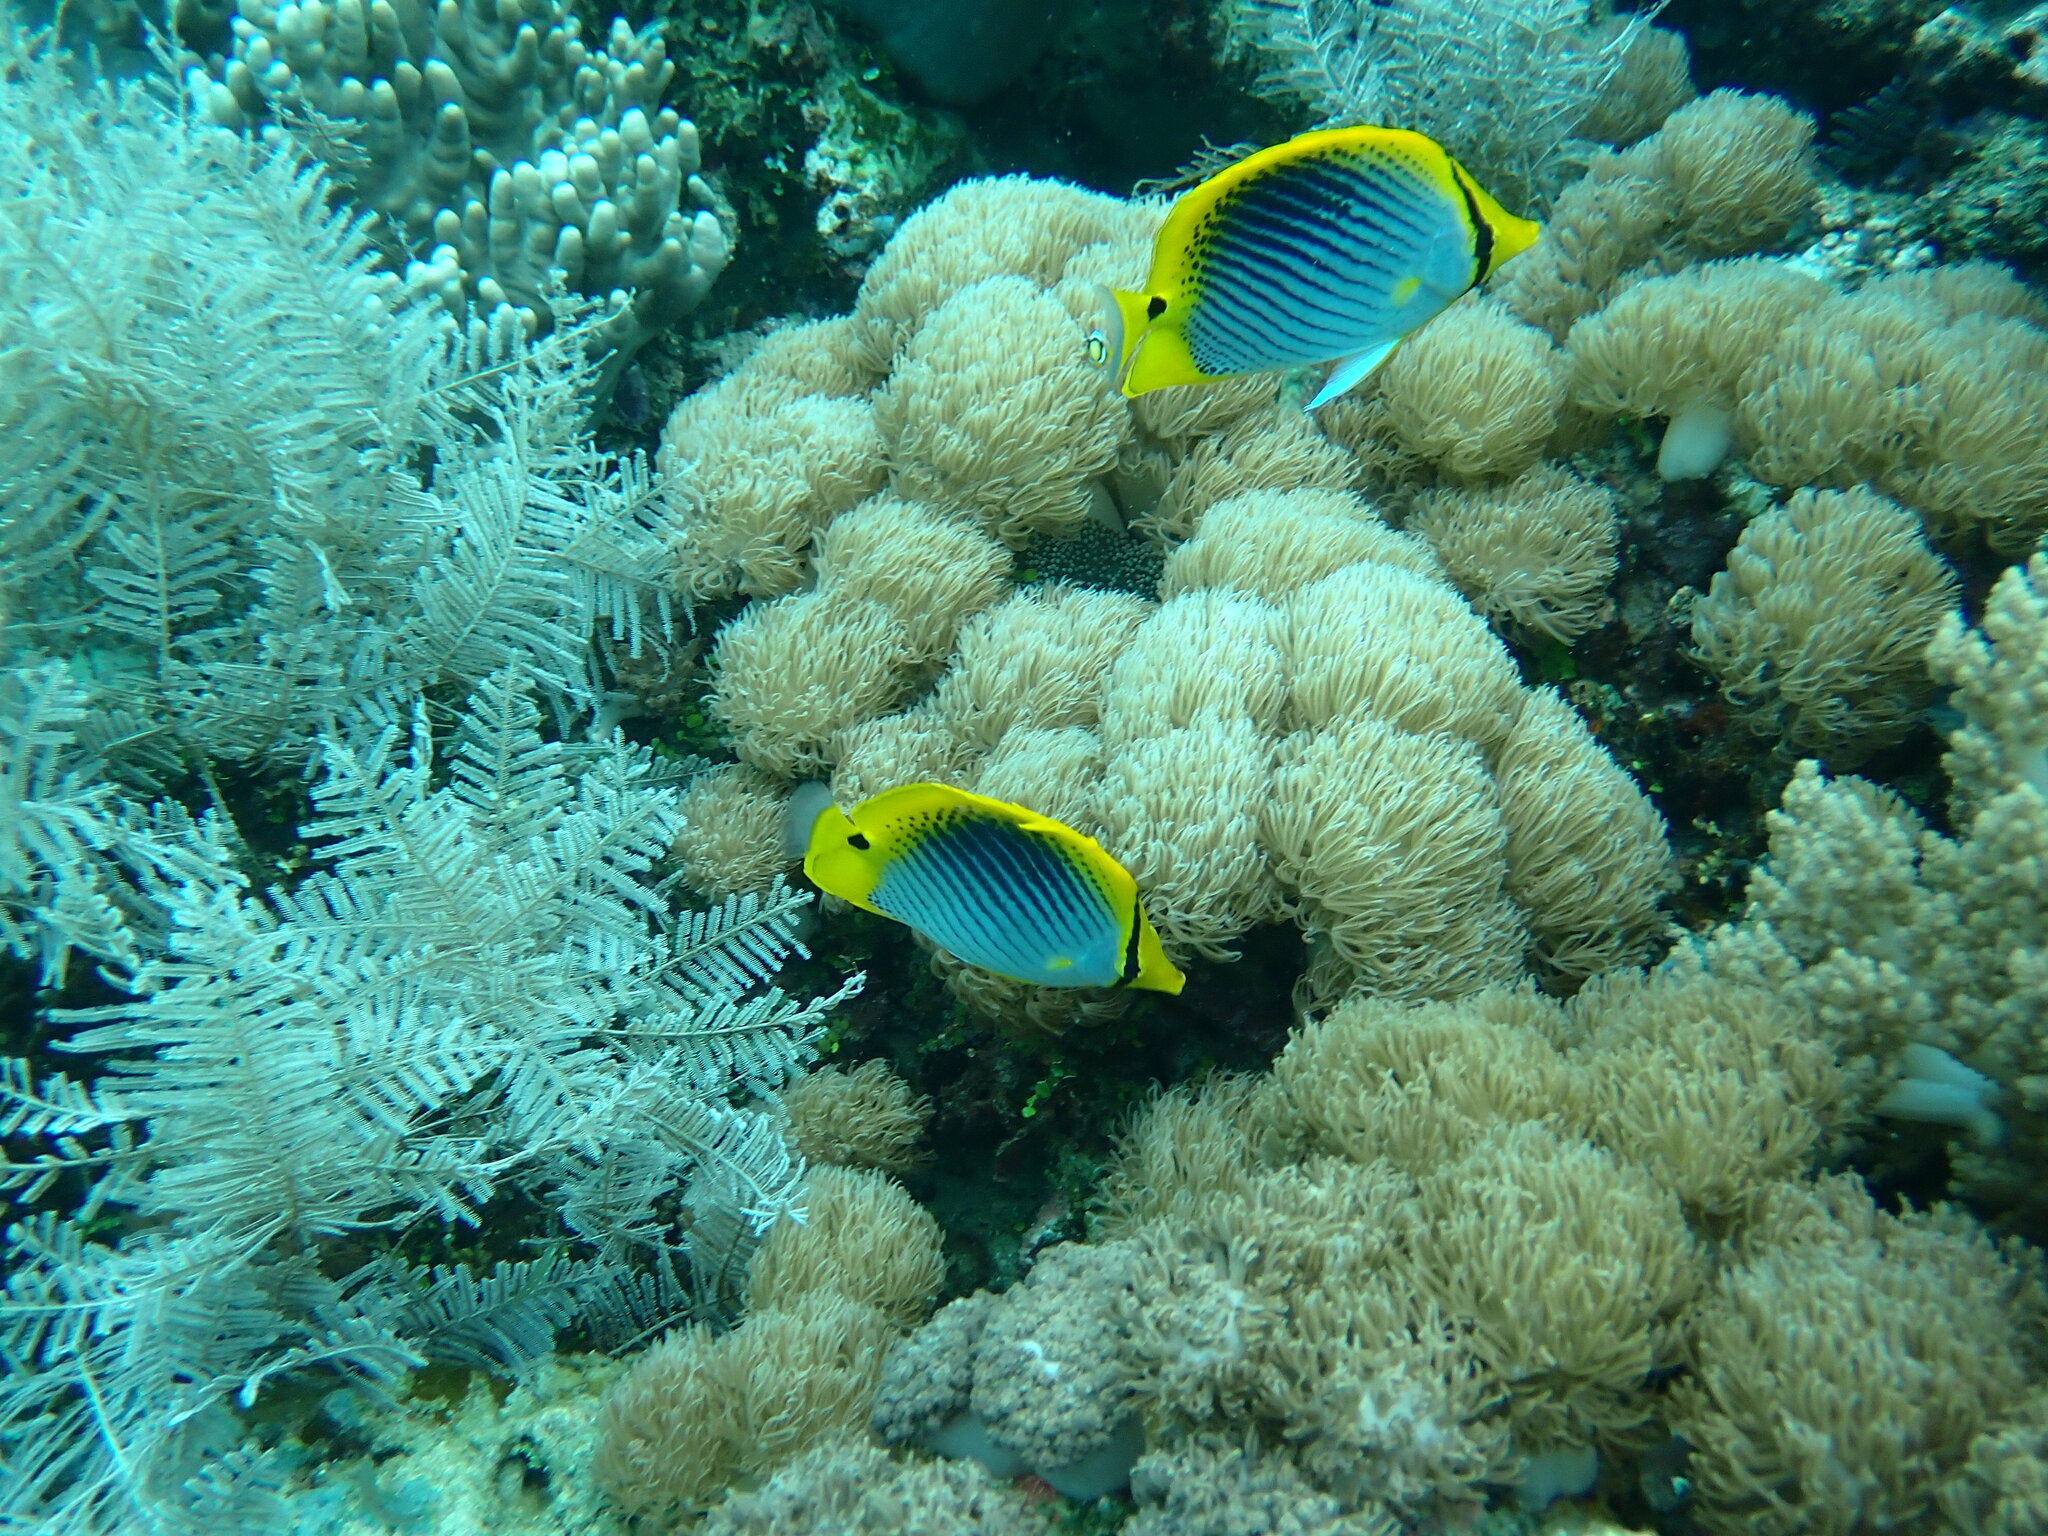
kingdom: Animalia
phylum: Chordata
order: Perciformes
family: Chaetodontidae
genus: Chaetodon
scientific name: Chaetodon ocellicaudus
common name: Spot-tail butterflyfish
